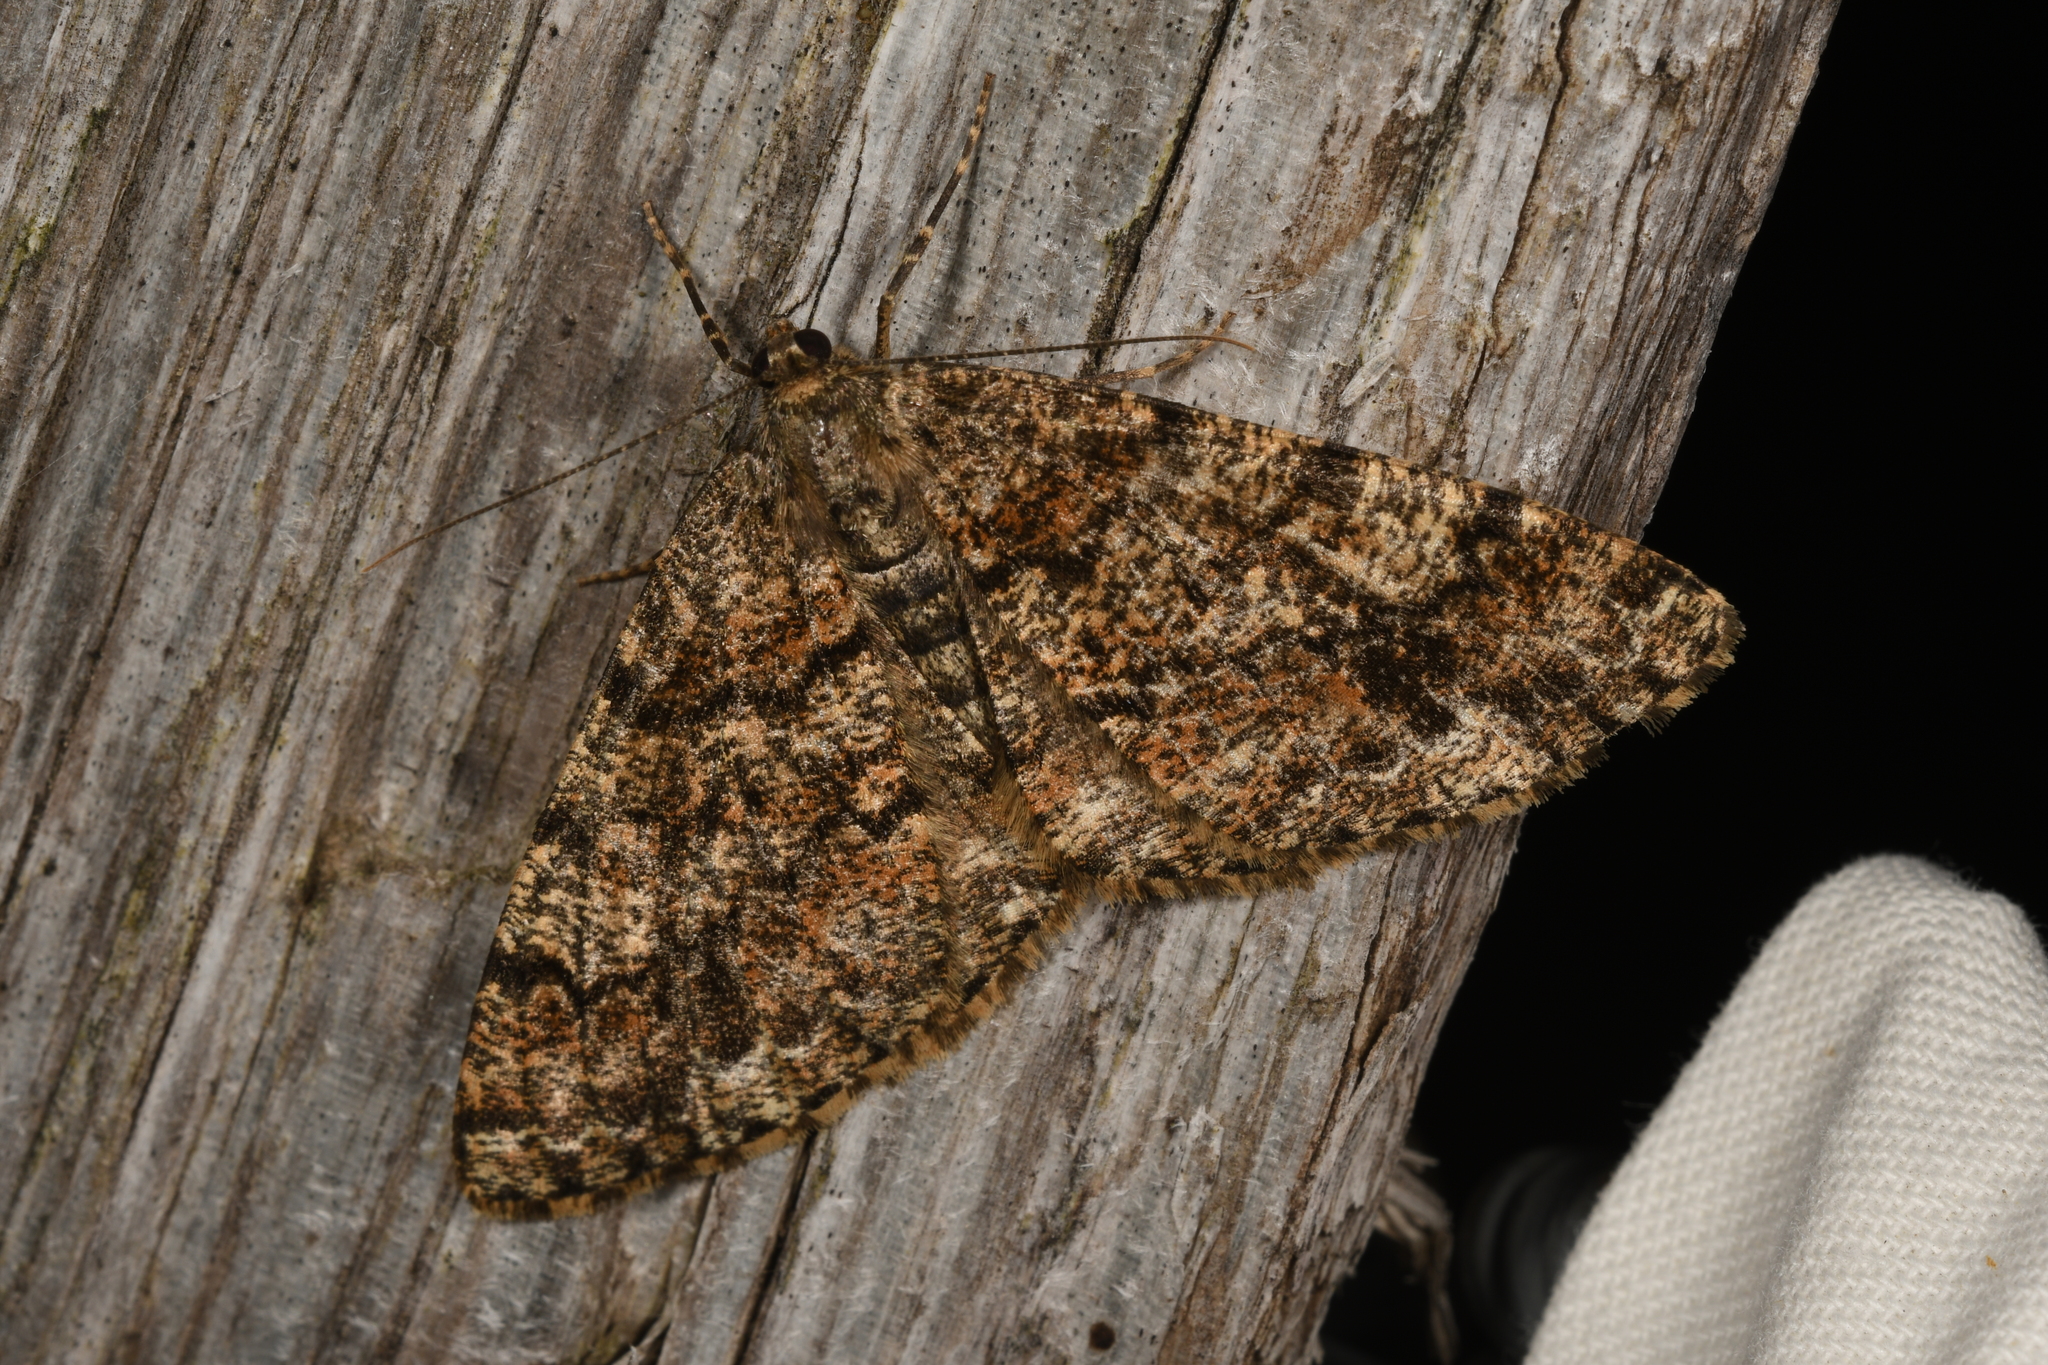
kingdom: Animalia
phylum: Arthropoda
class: Insecta
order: Lepidoptera
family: Geometridae
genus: Deileptenia
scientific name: Deileptenia ribeata
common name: Satin beauty
